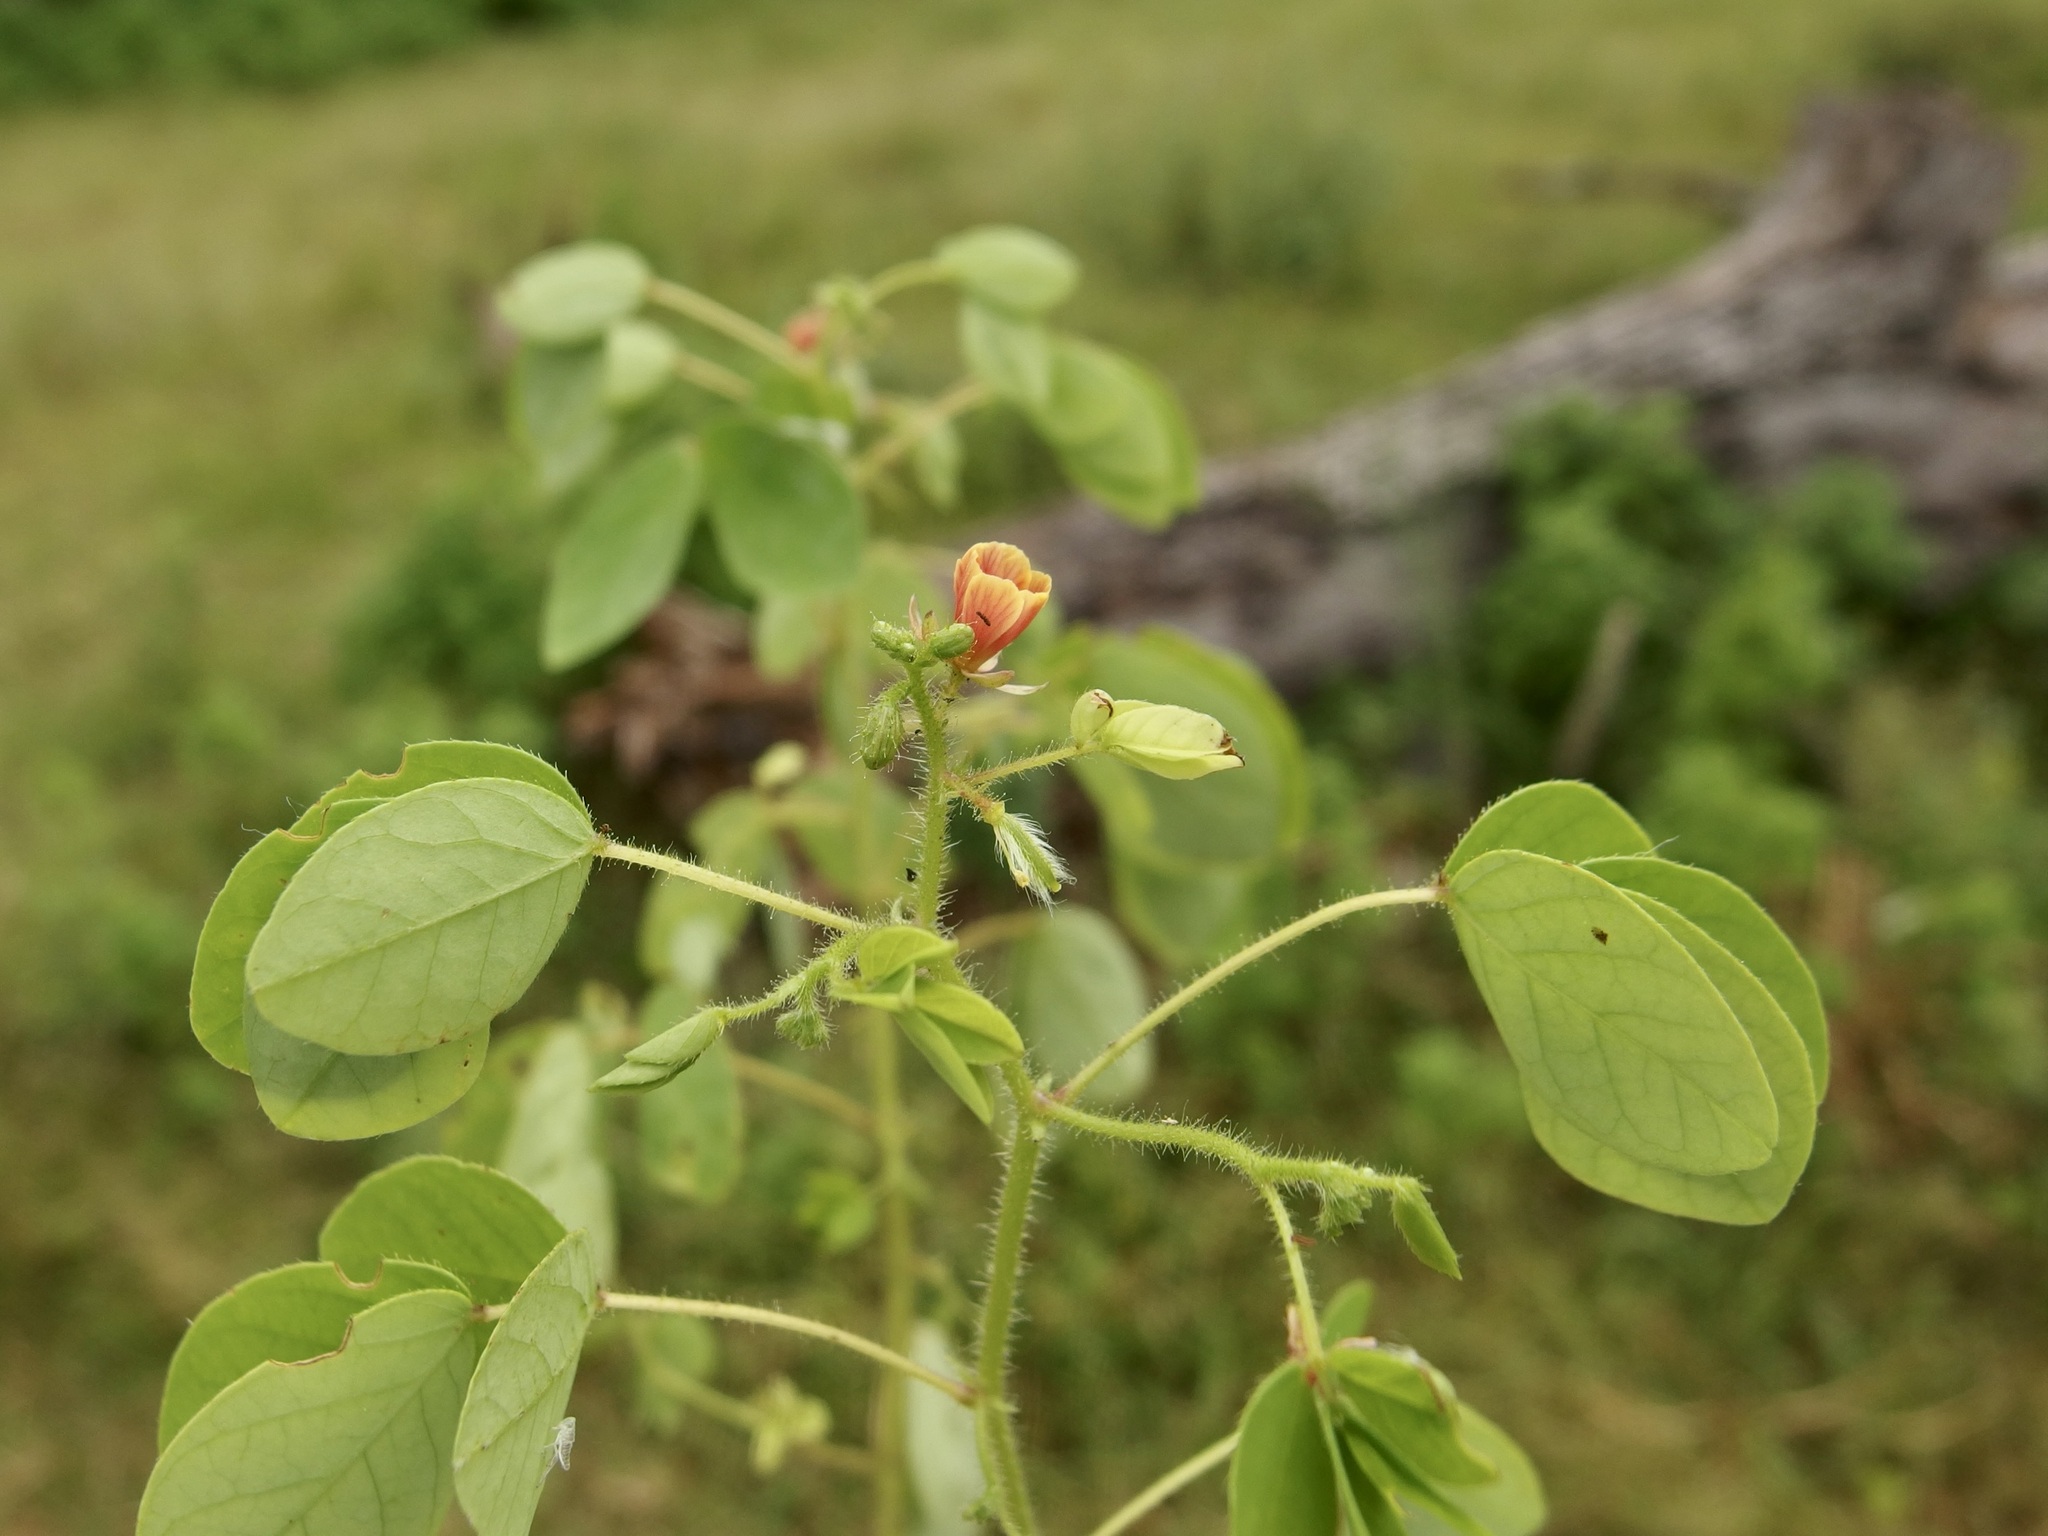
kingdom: Plantae
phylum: Tracheophyta
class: Magnoliopsida
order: Fabales
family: Fabaceae
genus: Chamaecrista
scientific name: Chamaecrista absus
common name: Tropical sensitive pea
